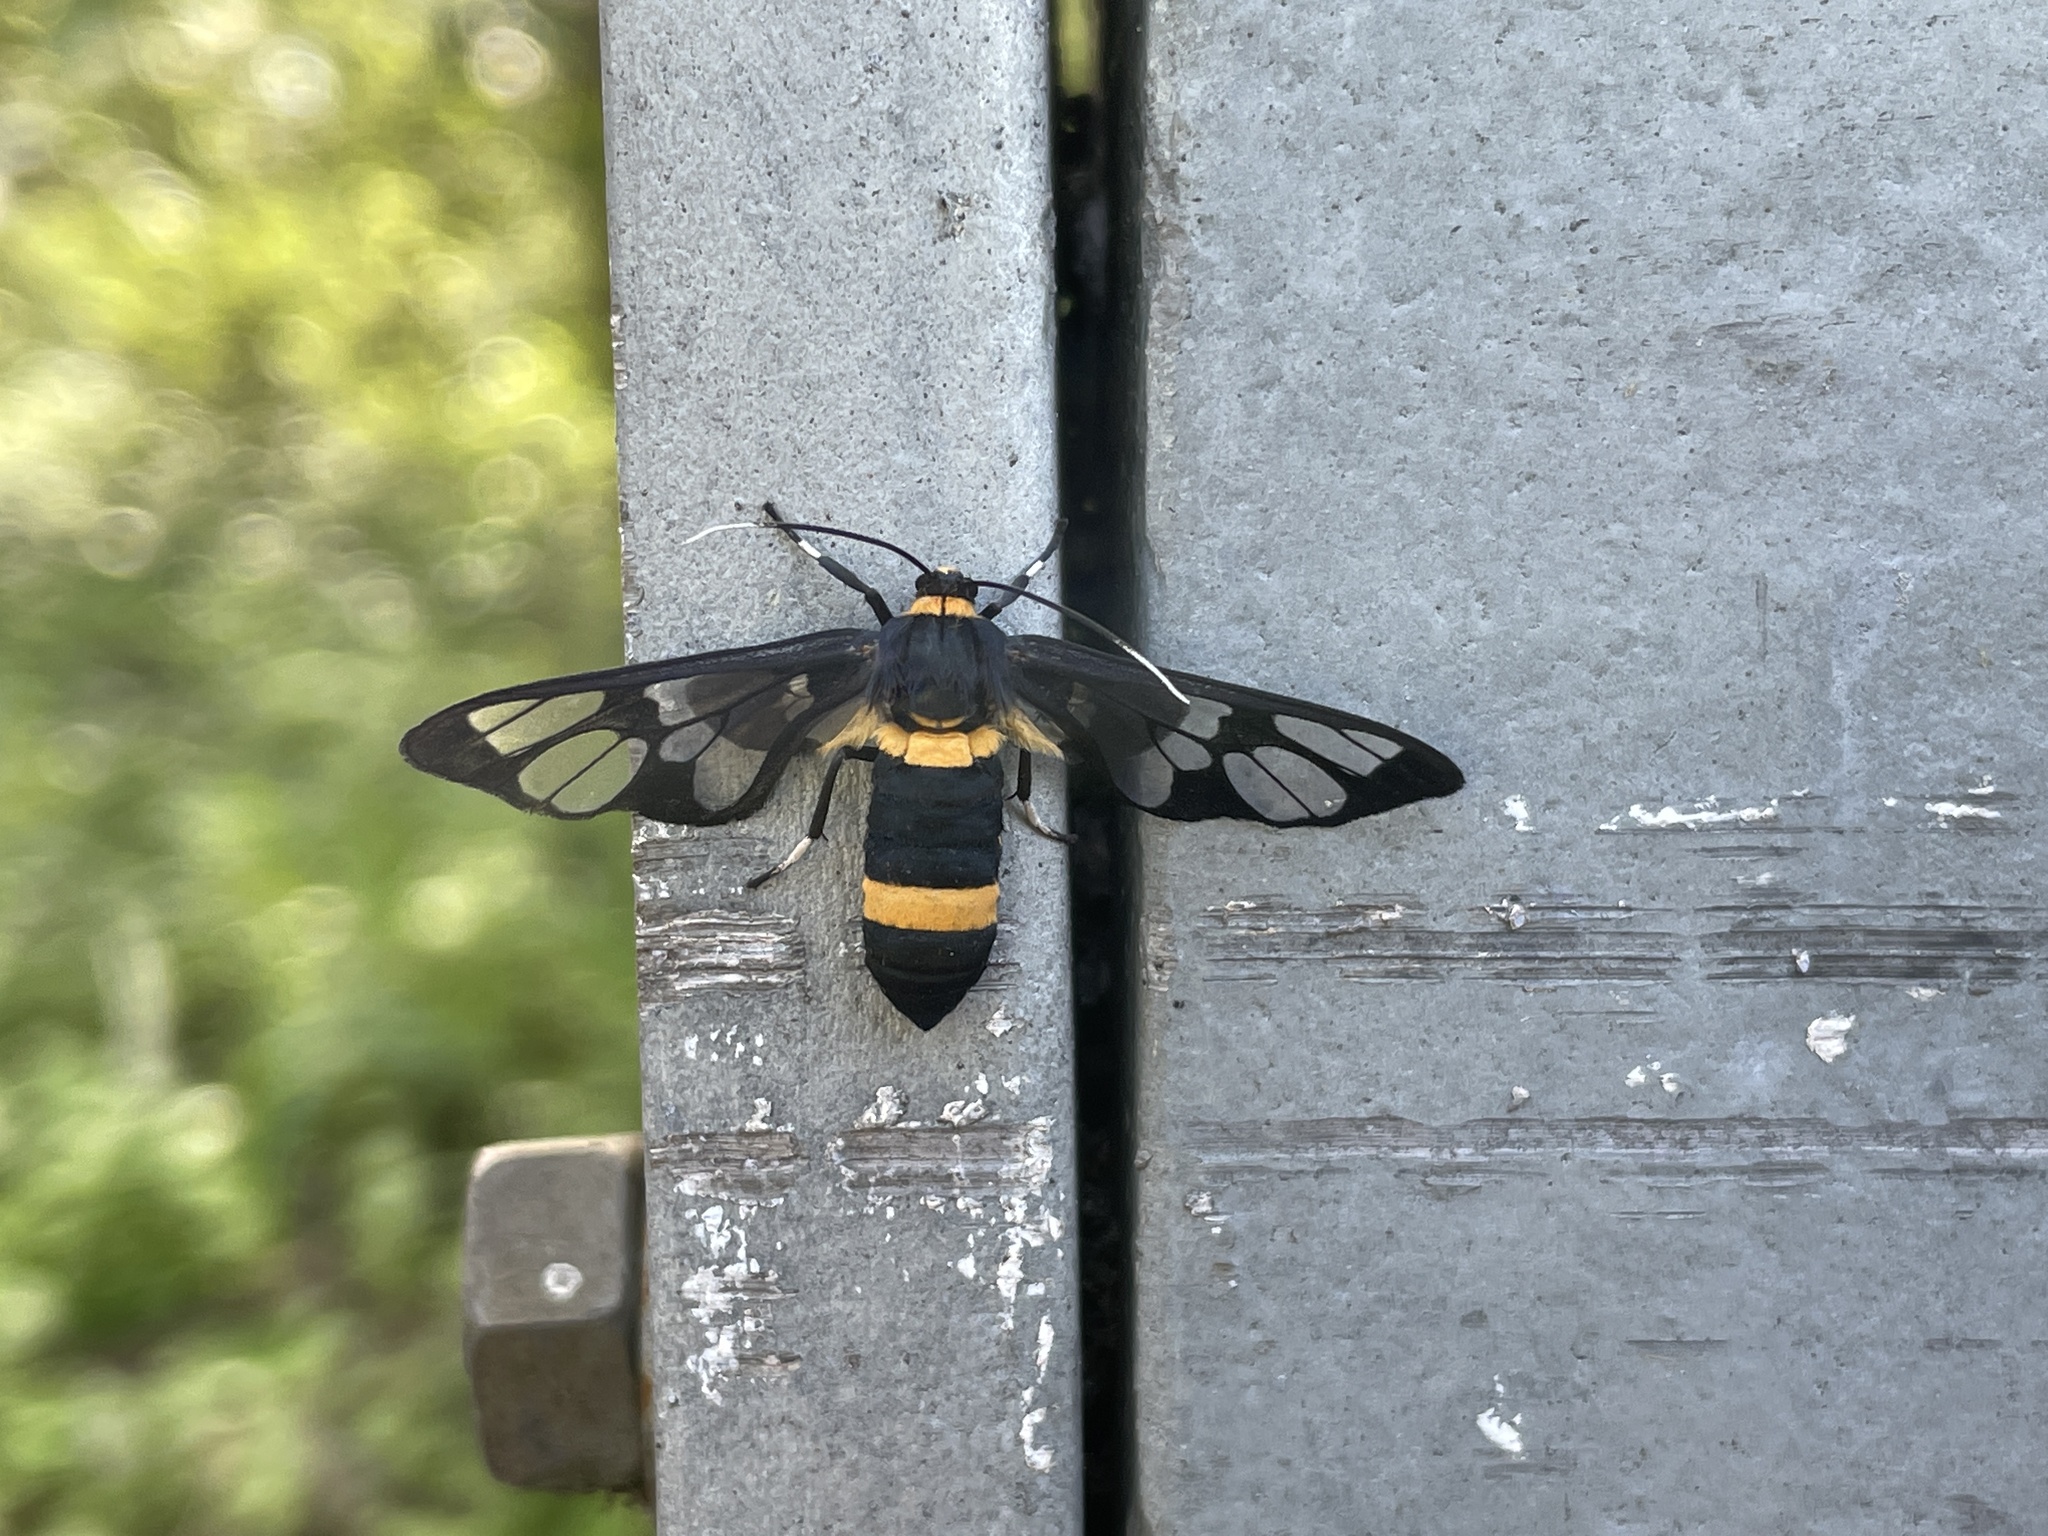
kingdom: Animalia
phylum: Arthropoda
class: Insecta
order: Lepidoptera
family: Erebidae
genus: Syntomoides
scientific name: Syntomoides imaon
